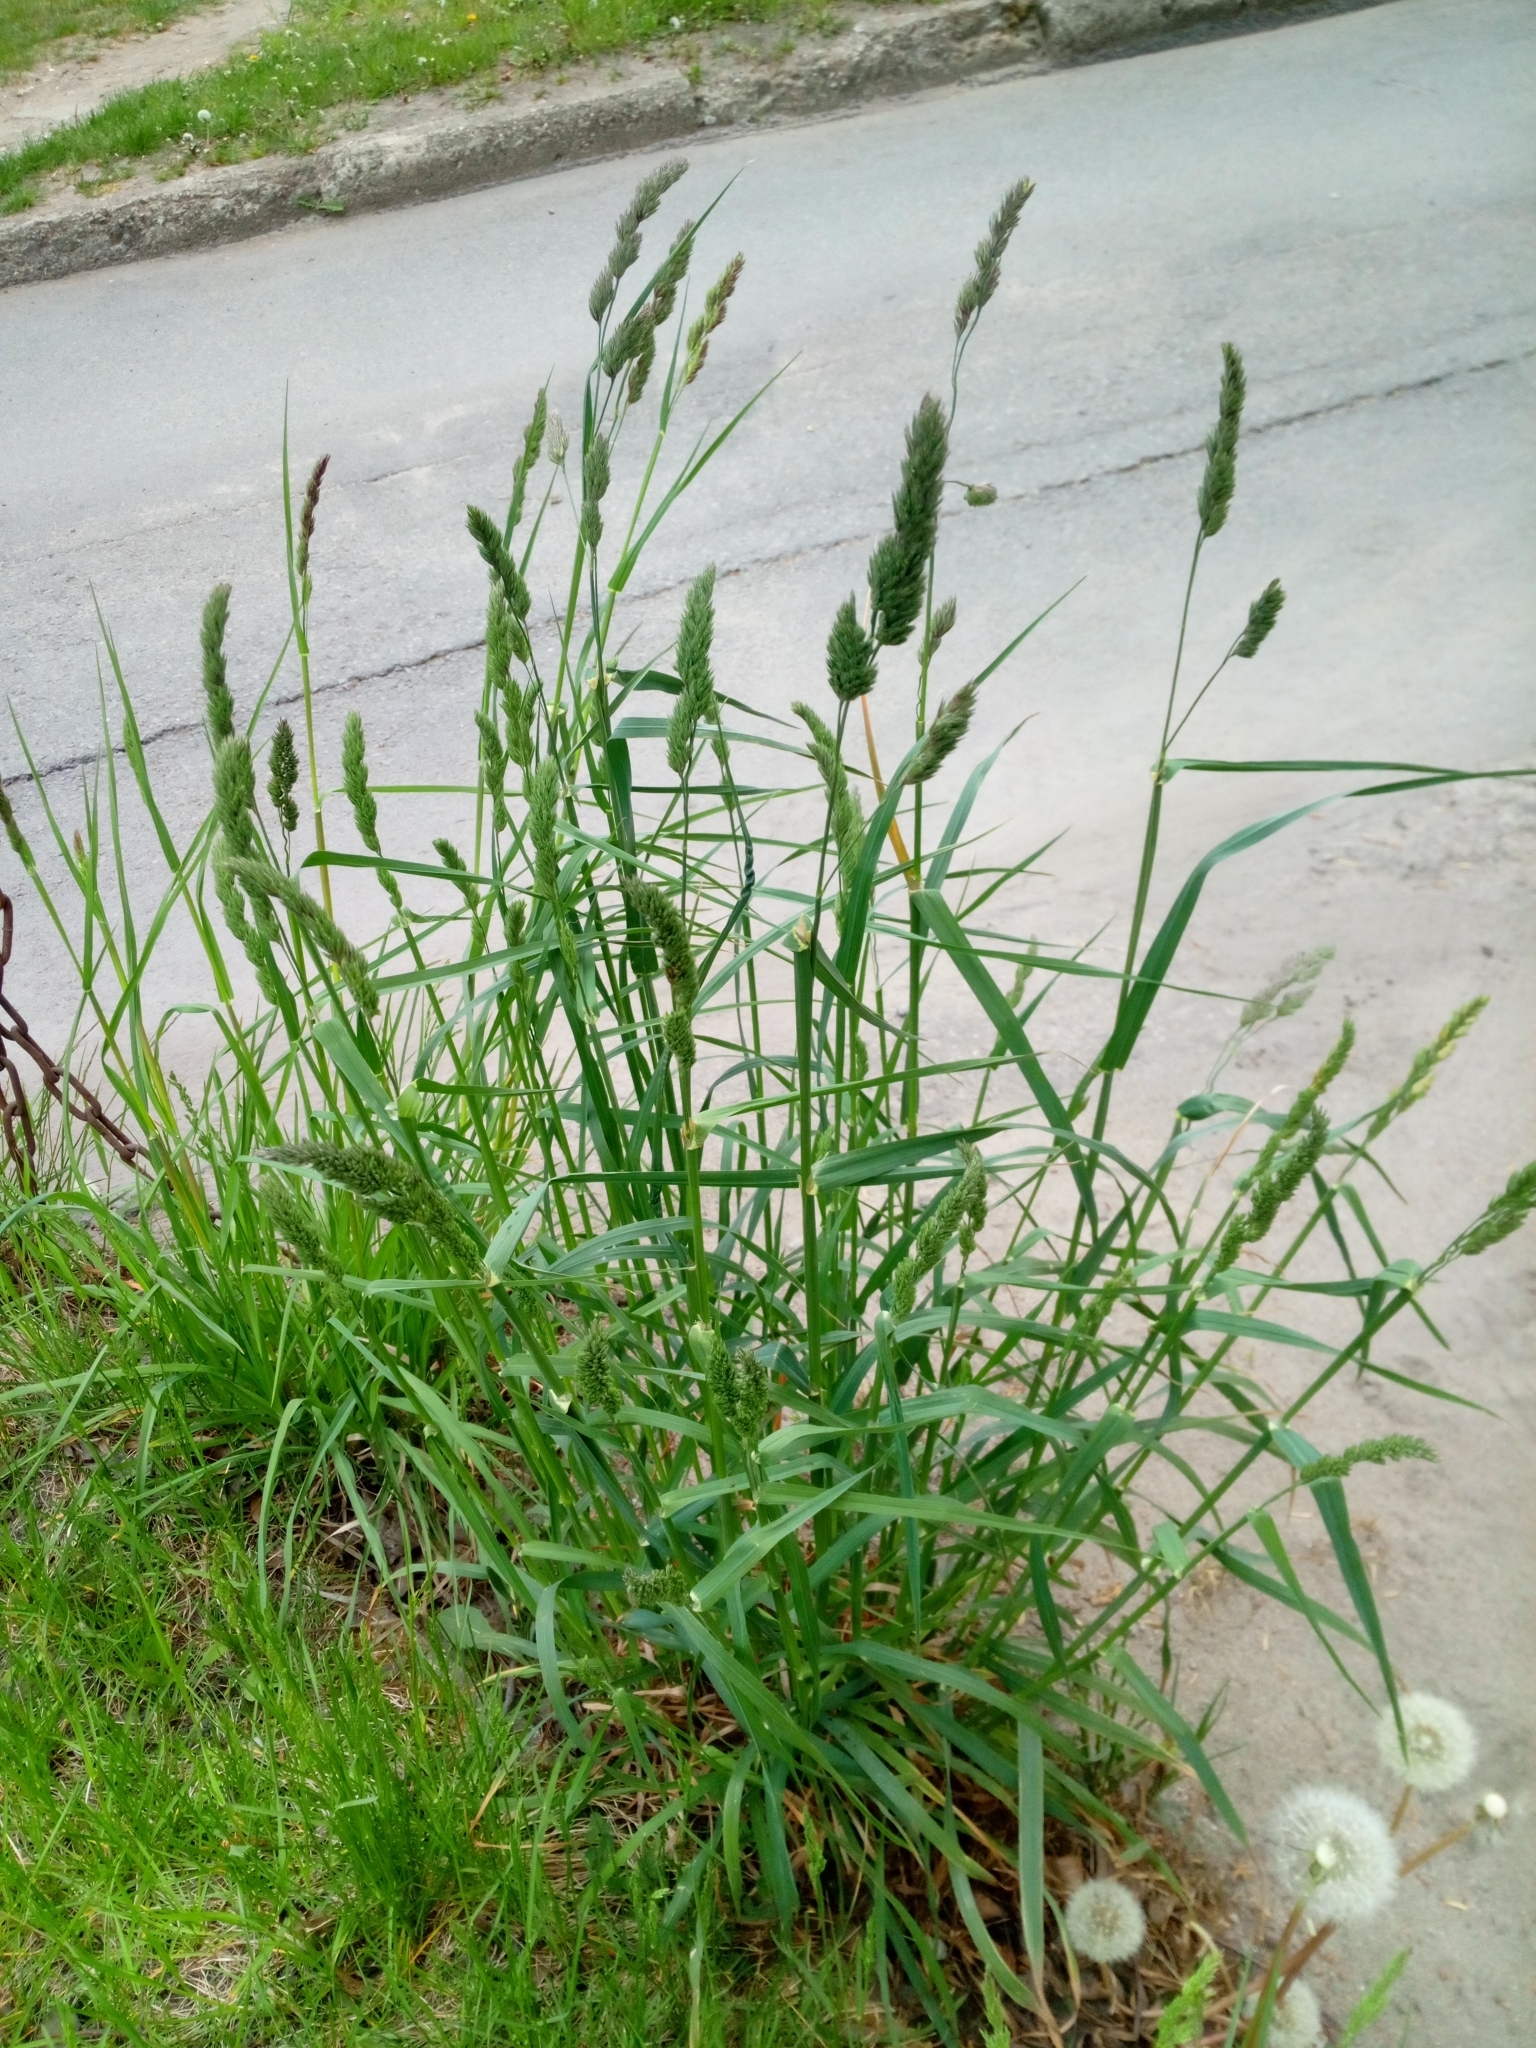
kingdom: Plantae
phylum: Tracheophyta
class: Liliopsida
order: Poales
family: Poaceae
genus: Dactylis
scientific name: Dactylis glomerata
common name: Orchardgrass
